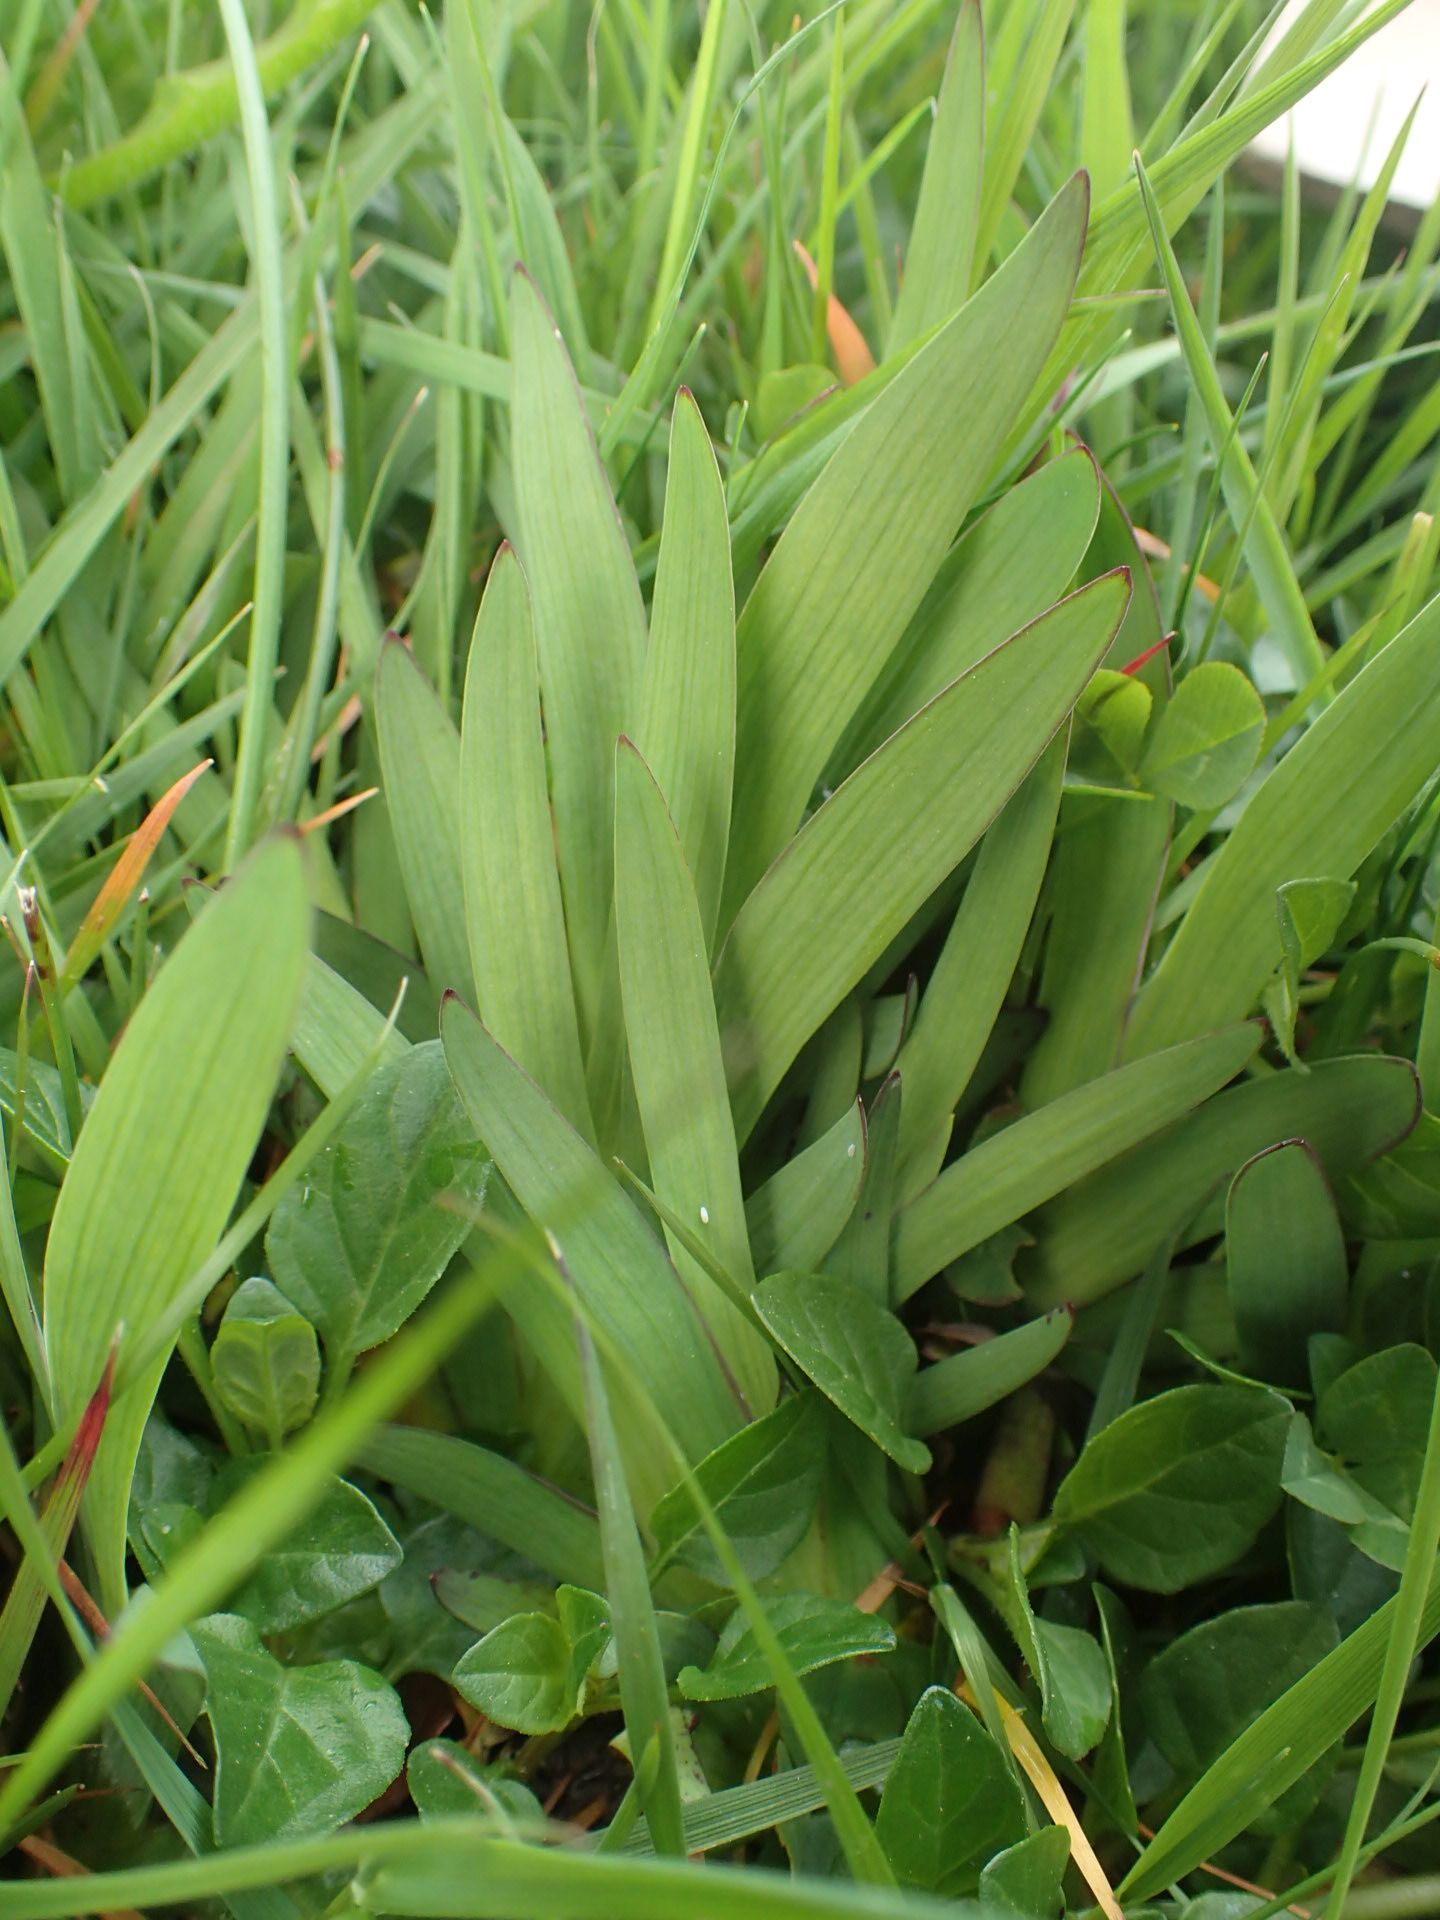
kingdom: Plantae
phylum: Tracheophyta
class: Liliopsida
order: Asparagales
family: Iridaceae
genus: Sisyrinchium
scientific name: Sisyrinchium californicum
